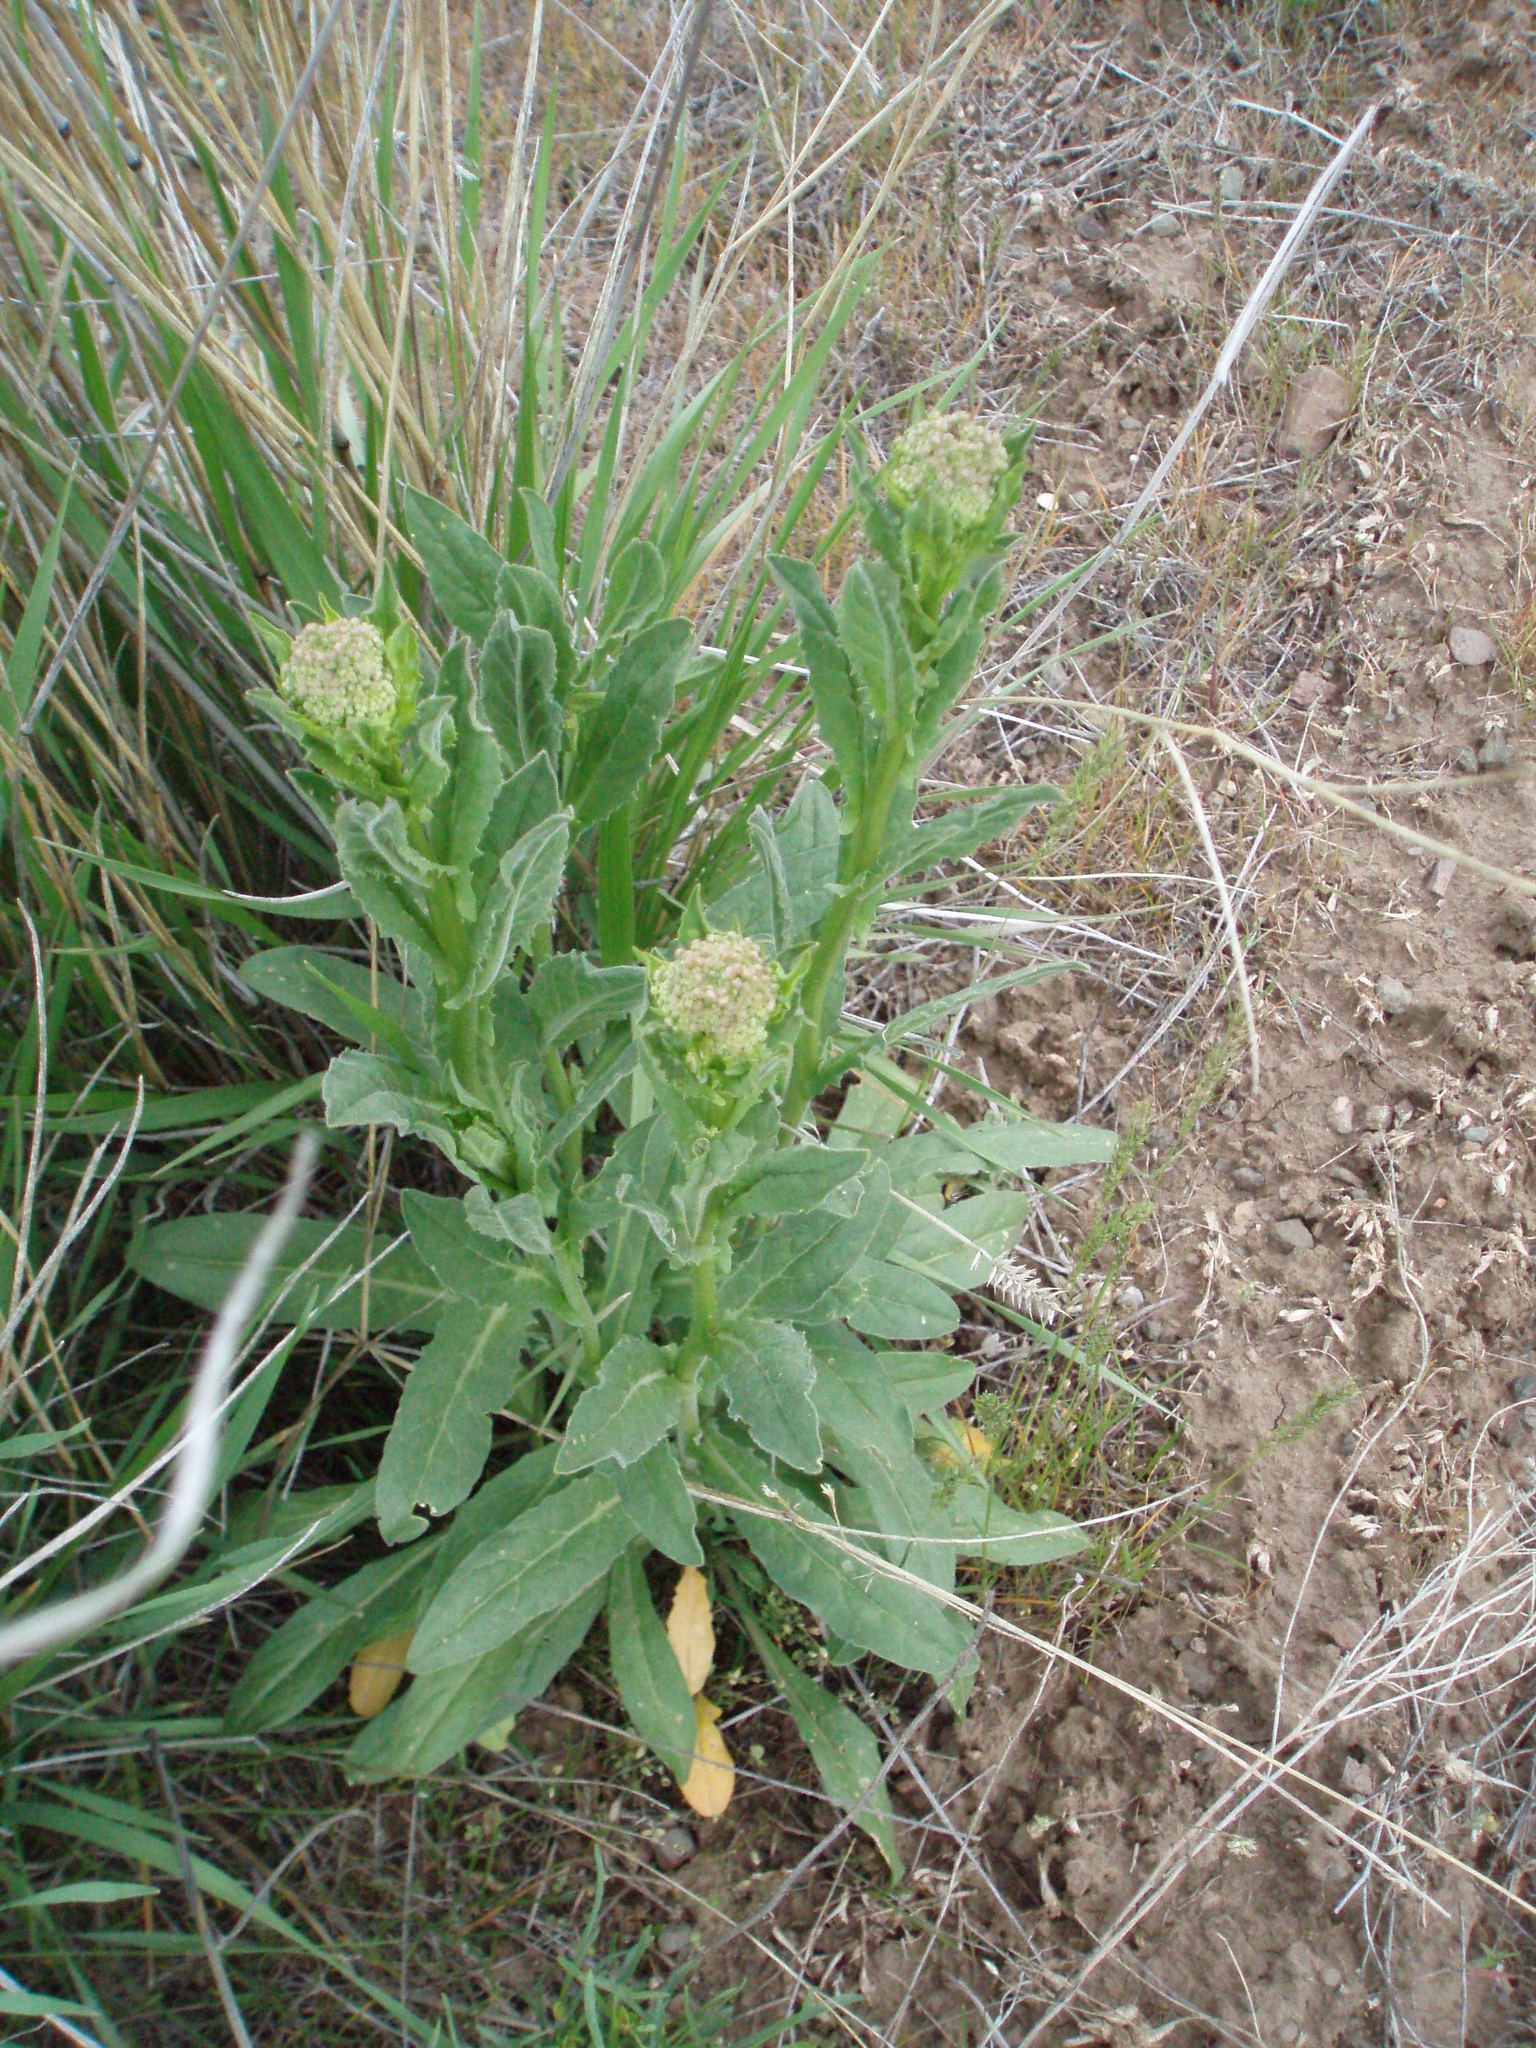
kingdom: Plantae
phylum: Tracheophyta
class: Magnoliopsida
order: Brassicales
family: Brassicaceae
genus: Lepidium
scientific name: Lepidium draba
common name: Hoary cress
